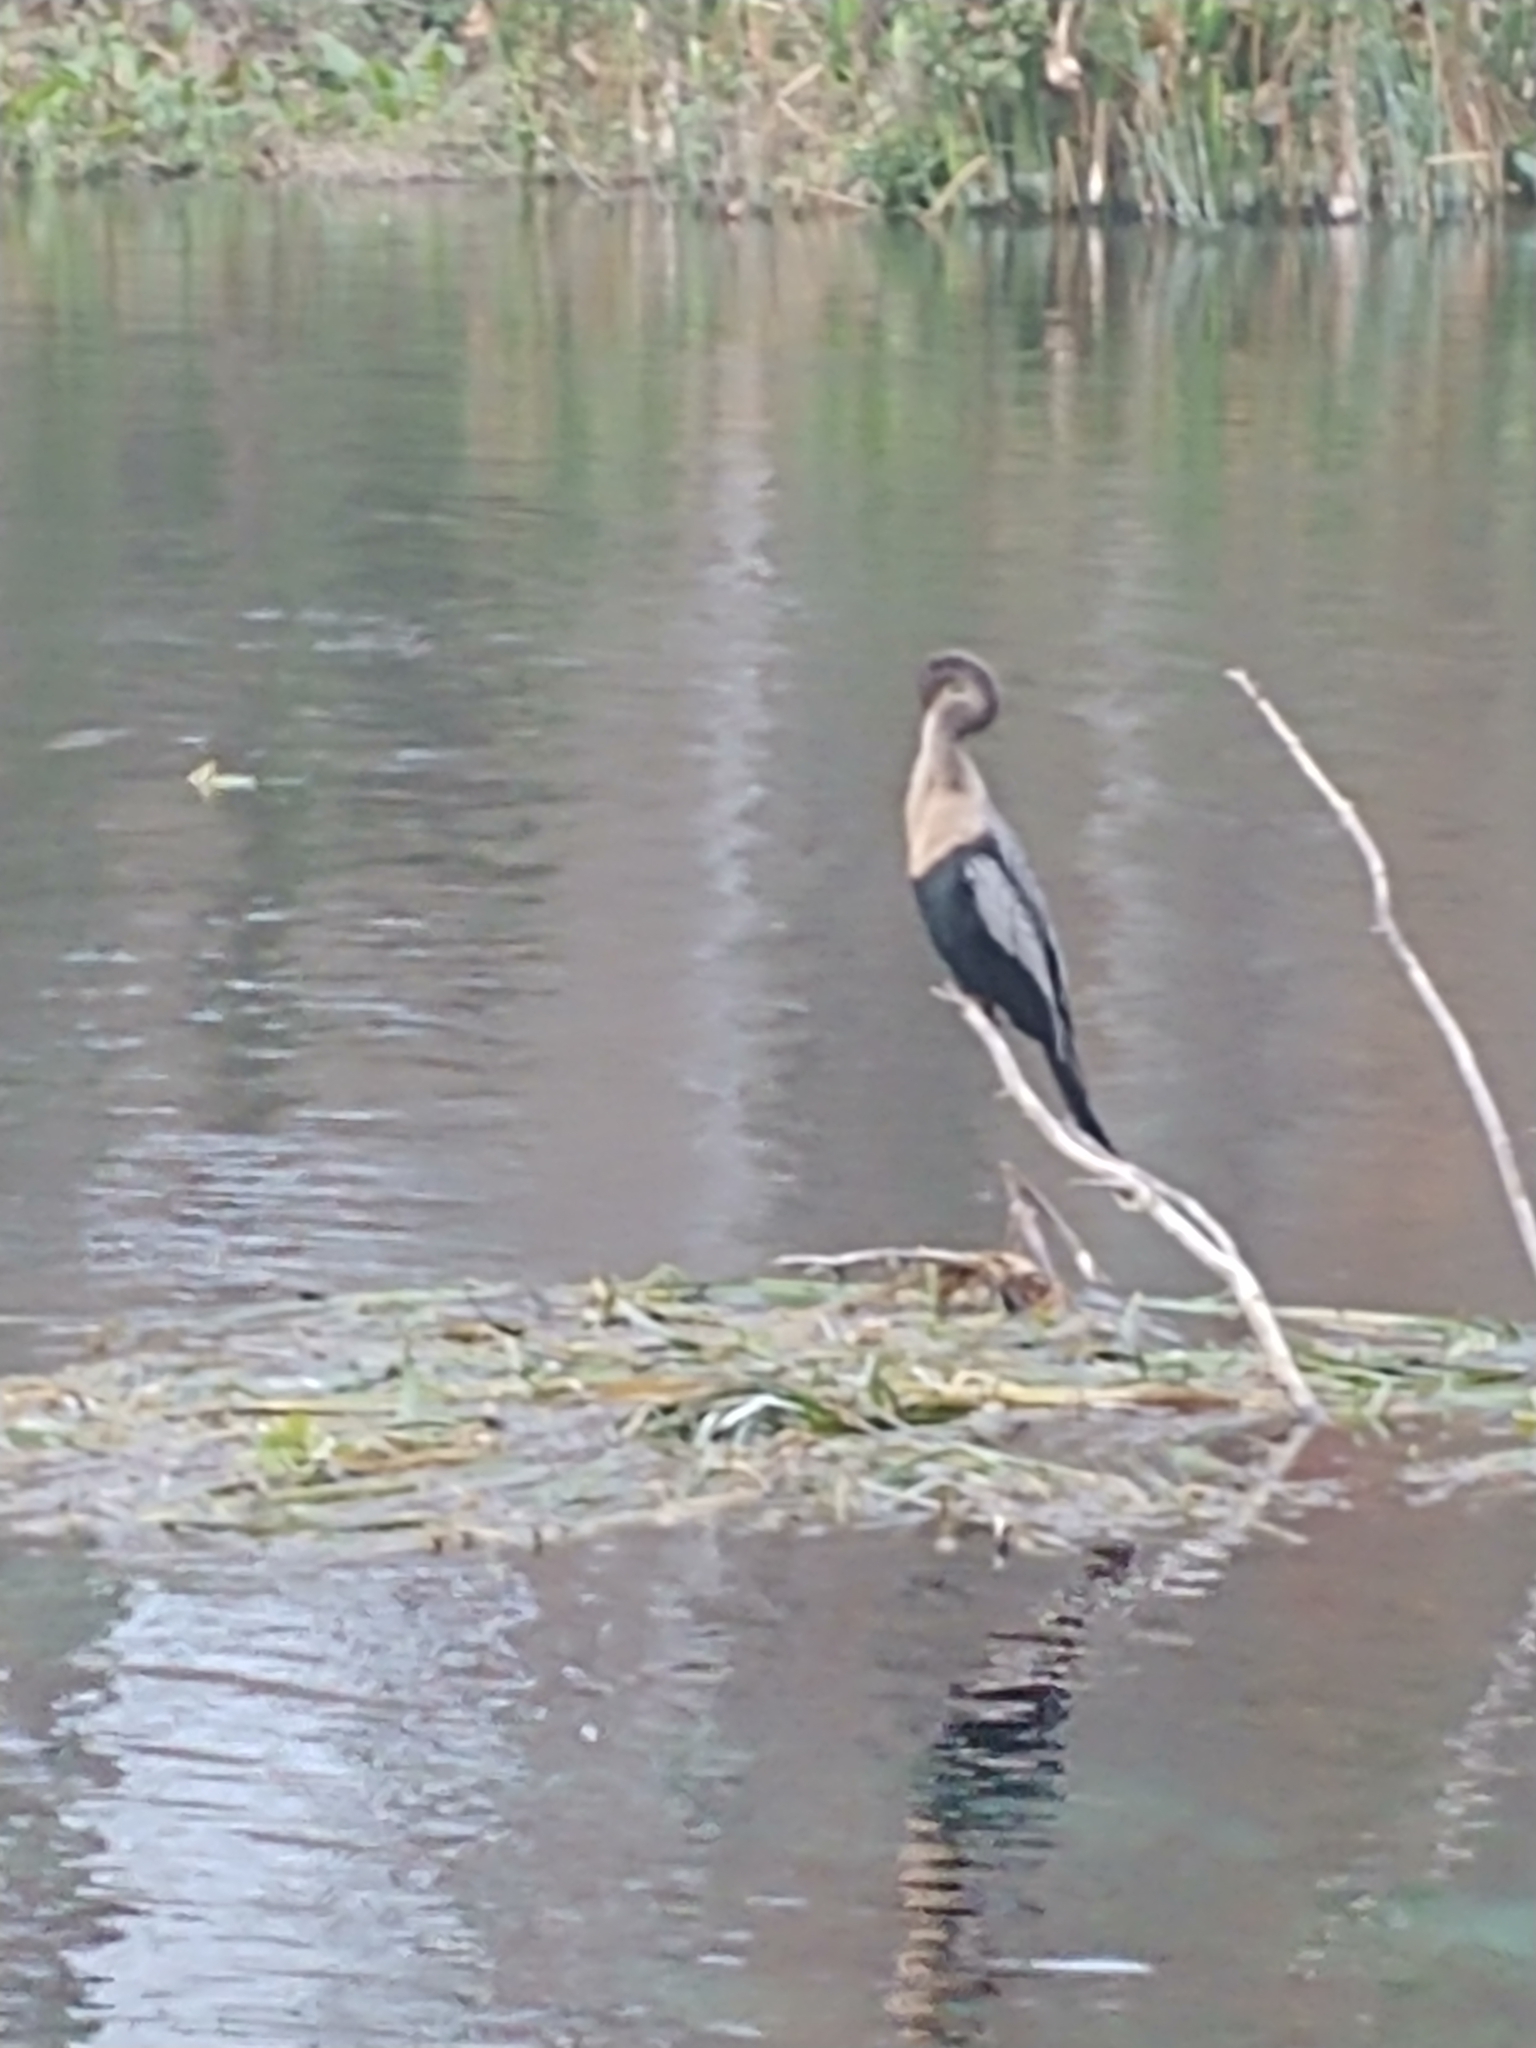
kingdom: Animalia
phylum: Chordata
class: Aves
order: Suliformes
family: Anhingidae
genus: Anhinga
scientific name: Anhinga anhinga
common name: Anhinga
